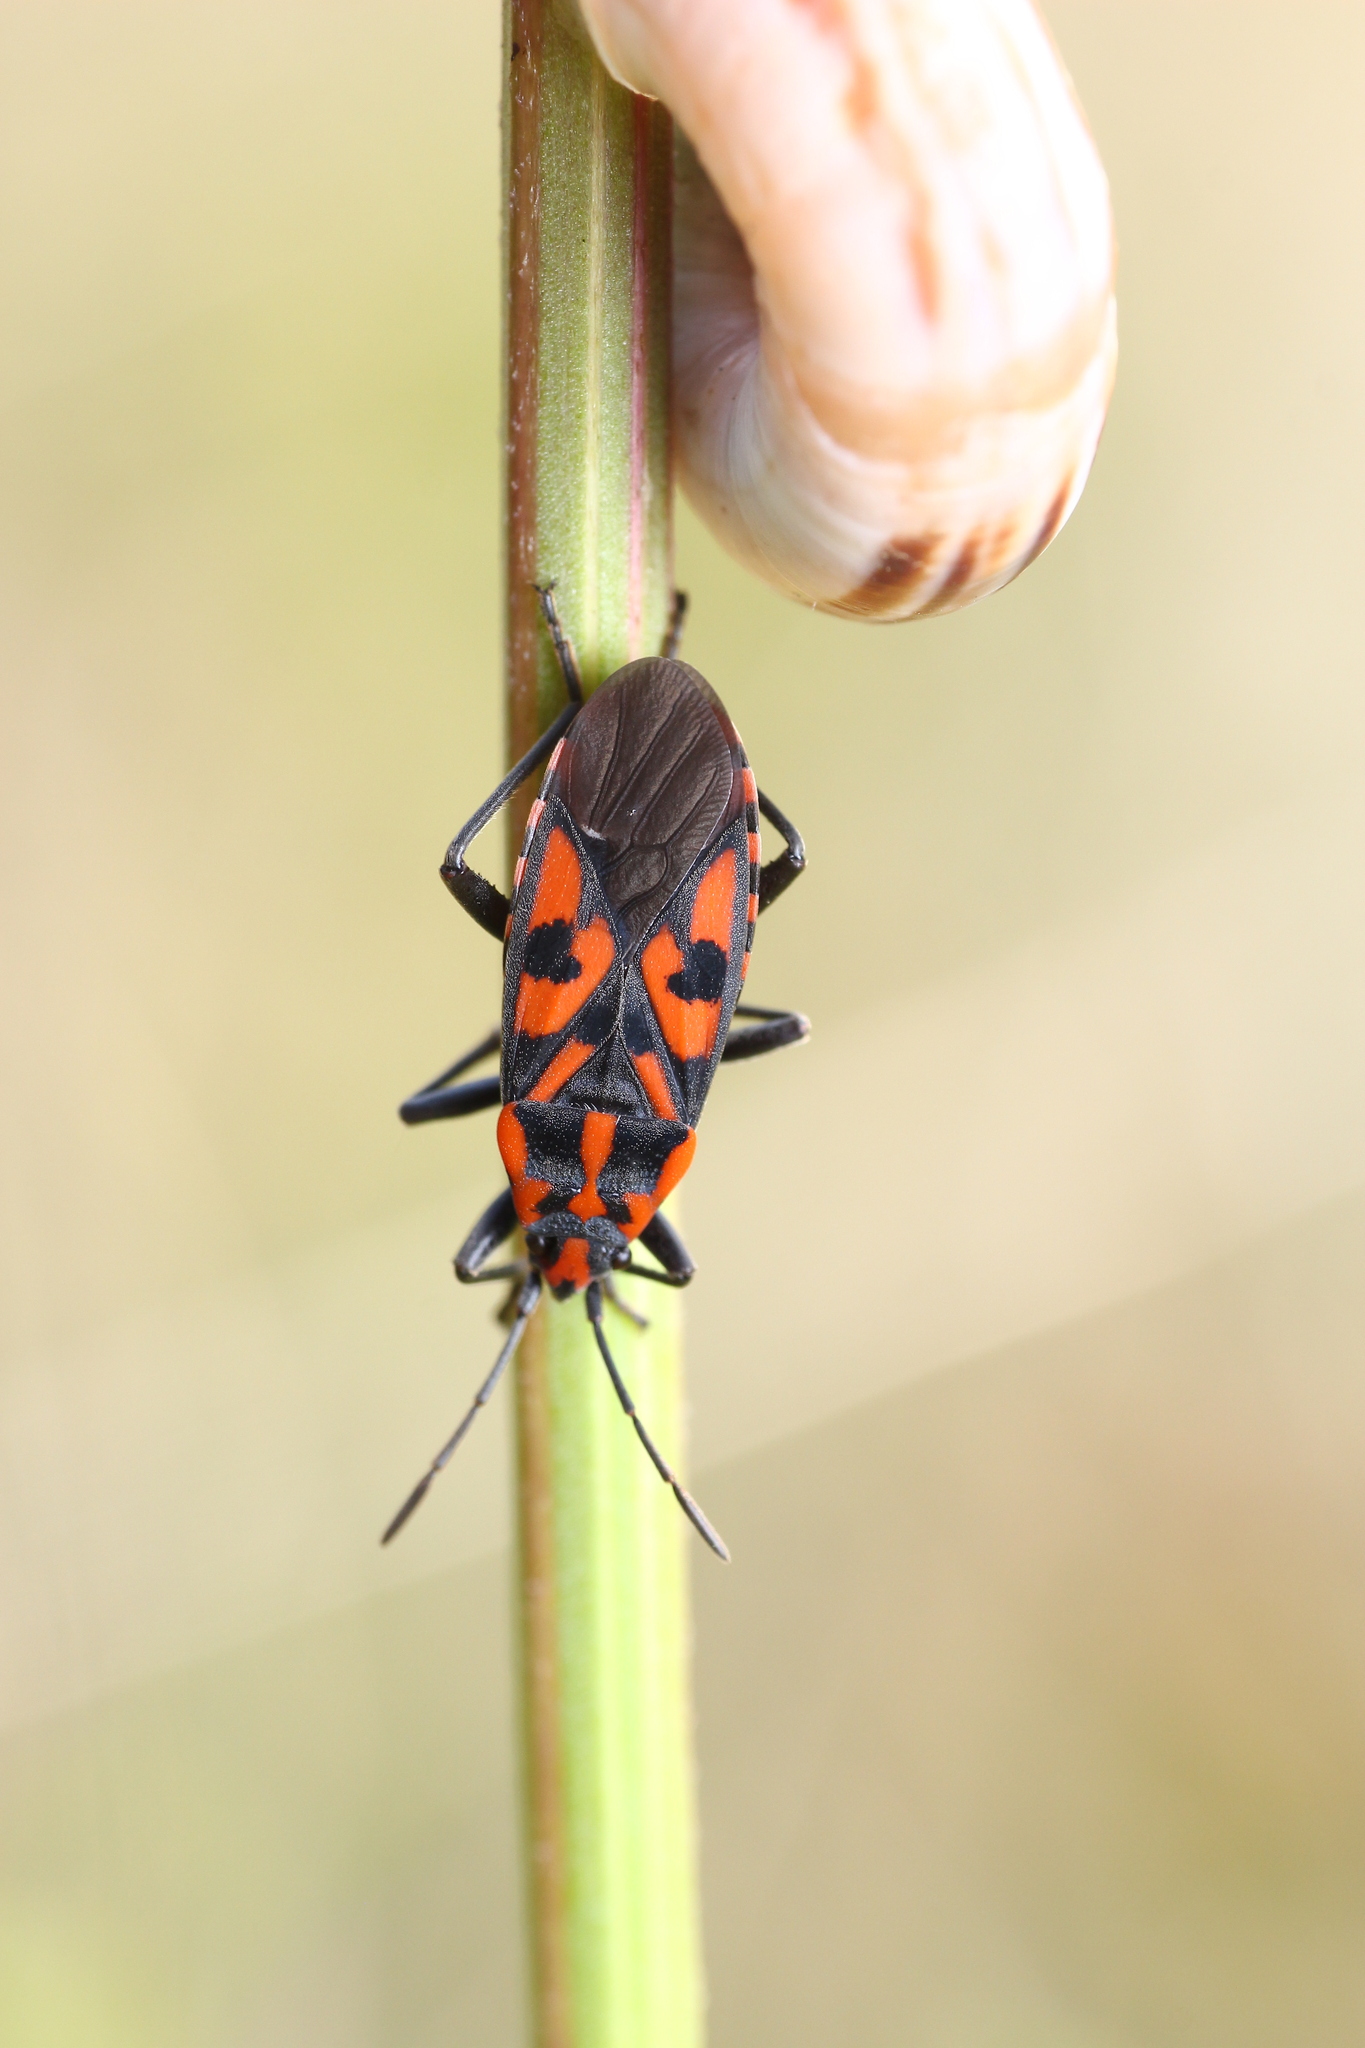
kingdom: Animalia
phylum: Arthropoda
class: Insecta
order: Hemiptera
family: Lygaeidae
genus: Spilostethus
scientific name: Spilostethus saxatilis
